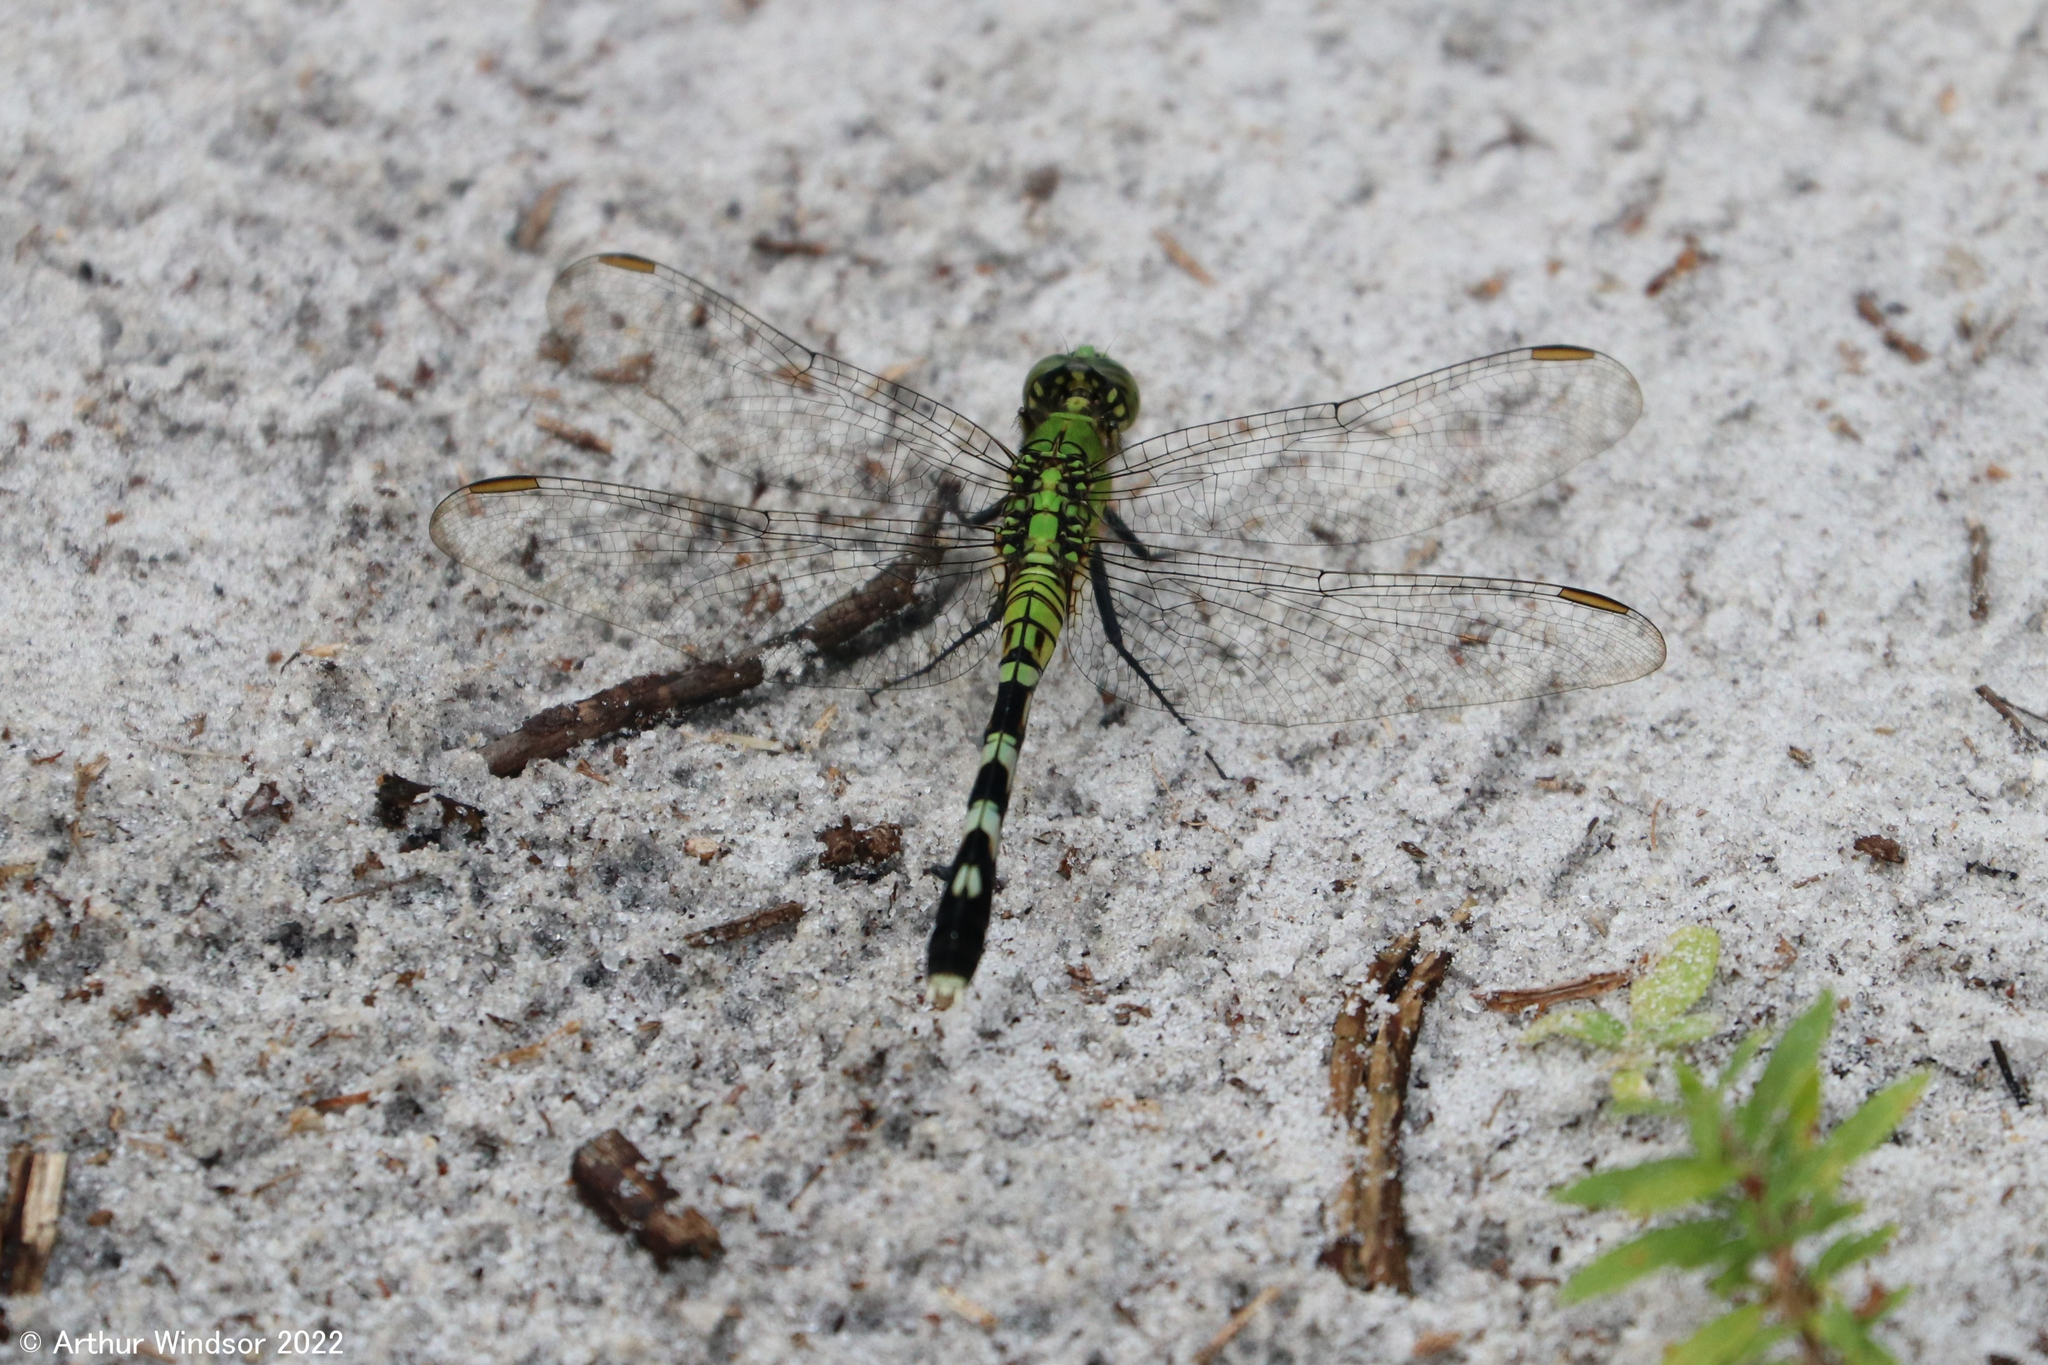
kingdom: Animalia
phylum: Arthropoda
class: Insecta
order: Odonata
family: Libellulidae
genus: Erythemis
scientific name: Erythemis simplicicollis
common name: Eastern pondhawk
